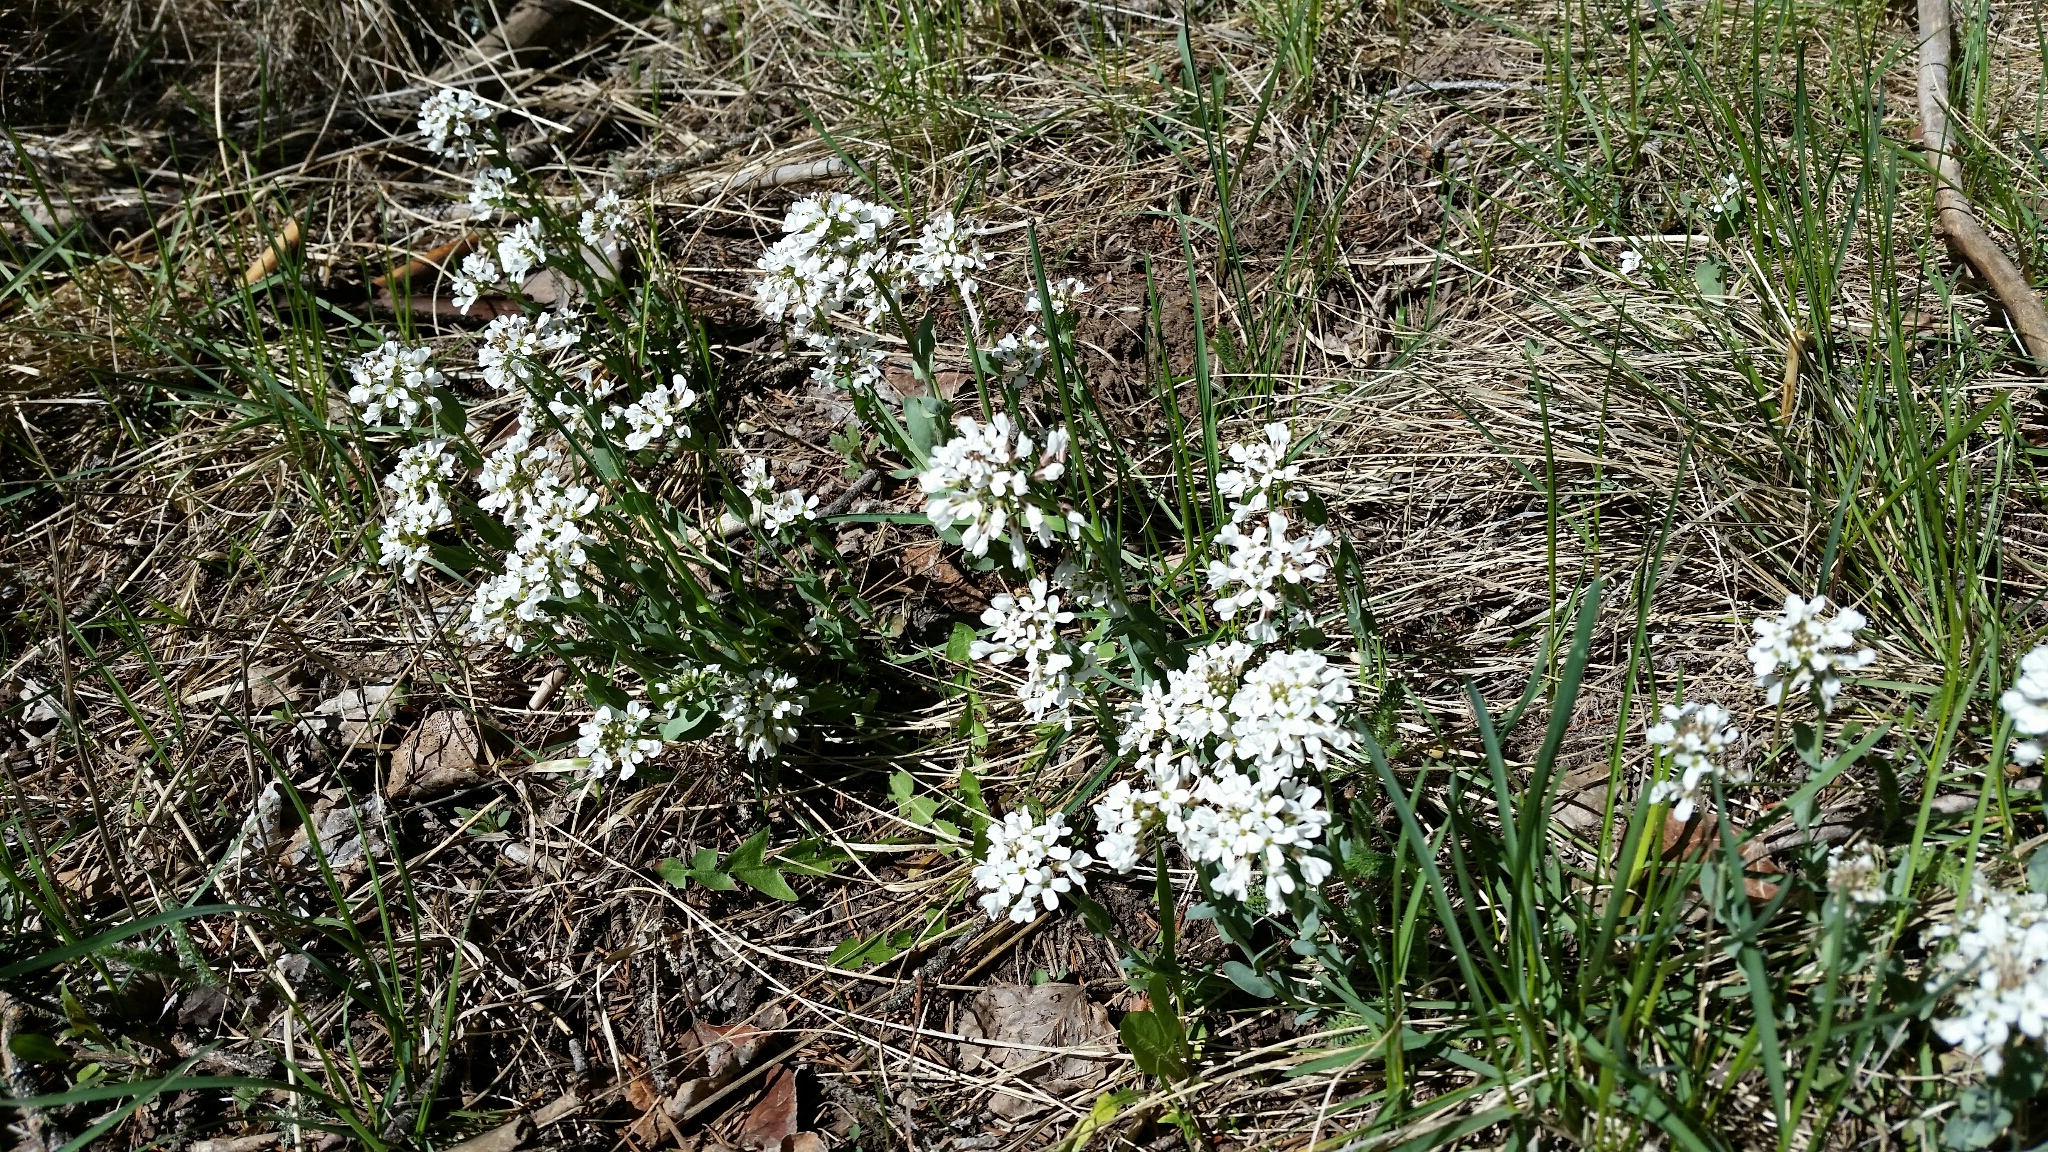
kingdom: Plantae
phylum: Tracheophyta
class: Magnoliopsida
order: Brassicales
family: Brassicaceae
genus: Noccaea
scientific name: Noccaea fendleri
